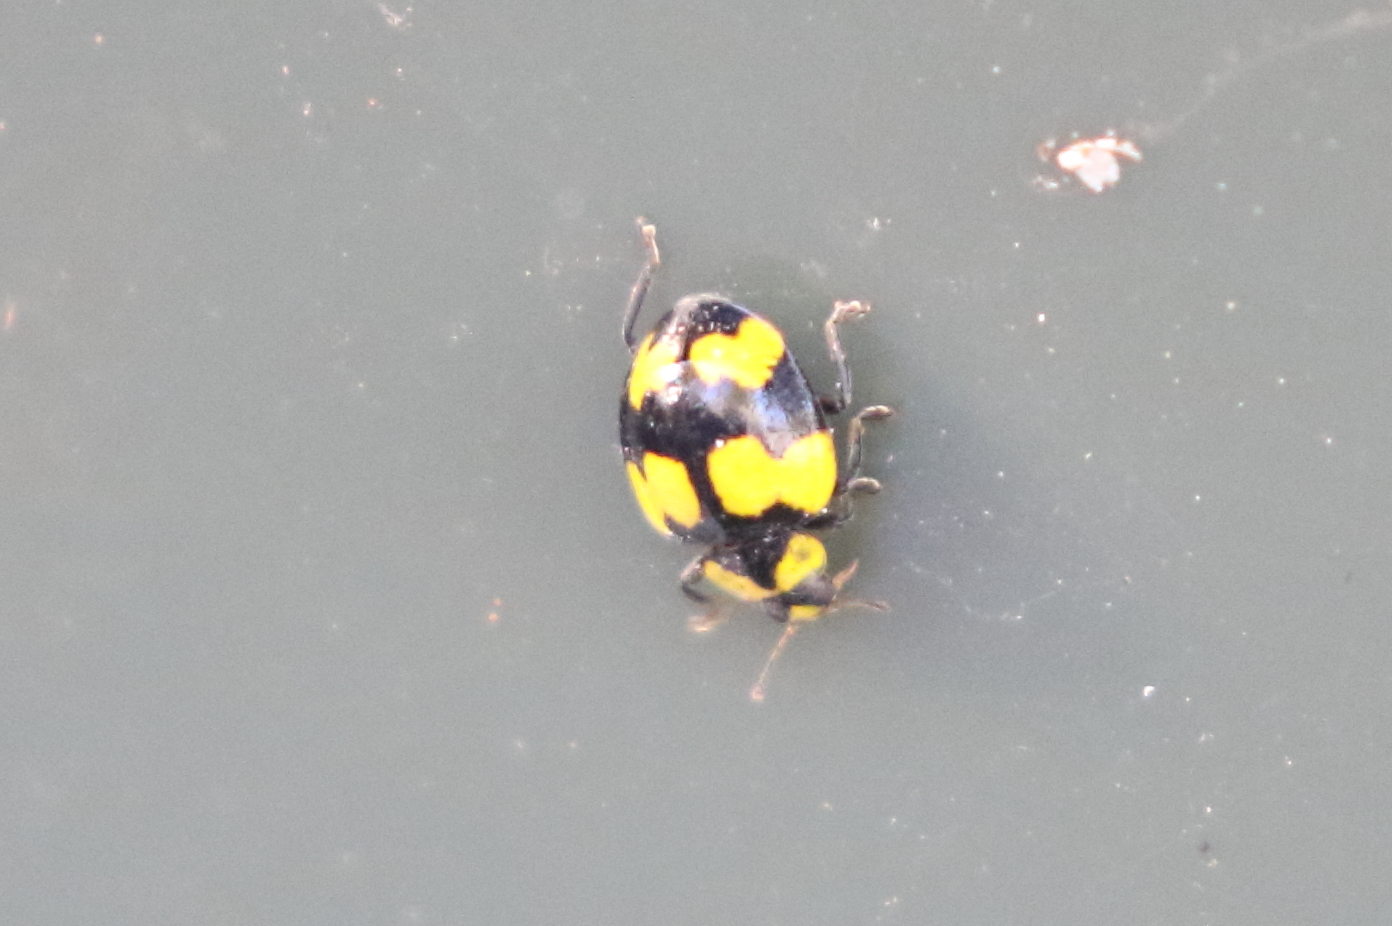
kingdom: Animalia
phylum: Arthropoda
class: Insecta
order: Coleoptera
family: Coccinellidae
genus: Illeis
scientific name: Illeis galbula
